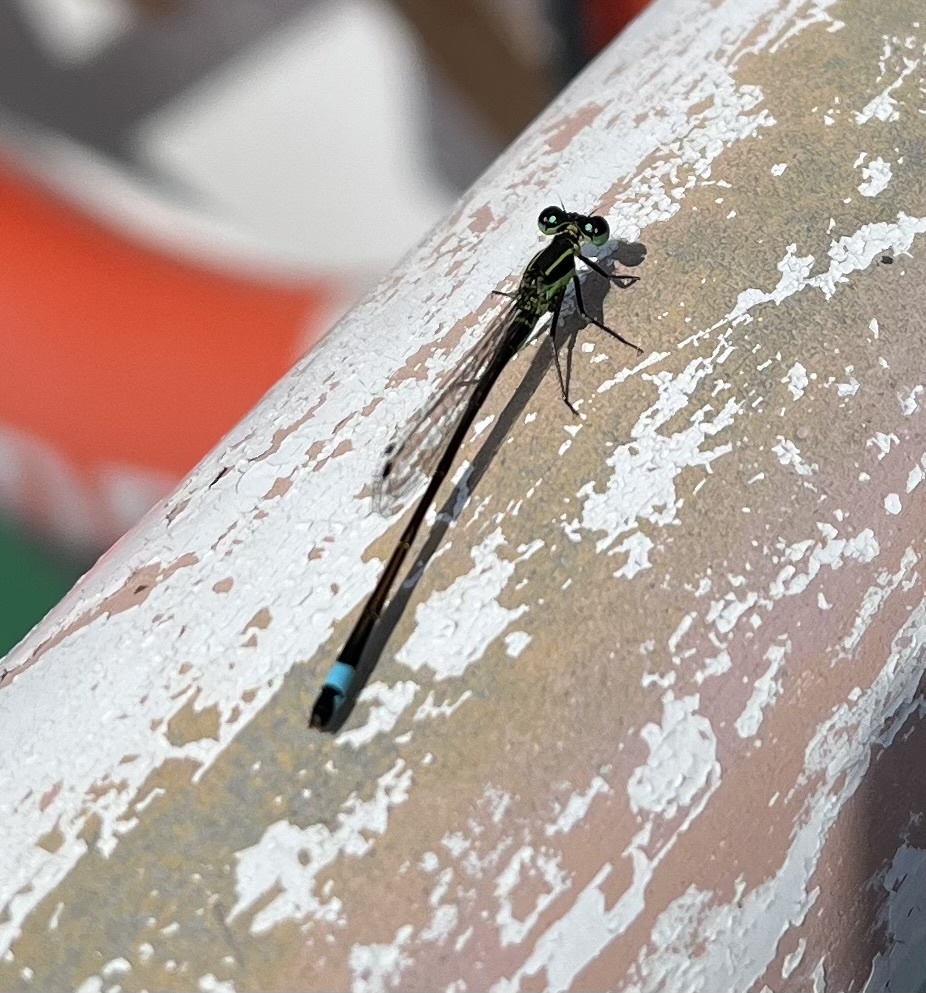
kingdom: Animalia
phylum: Arthropoda
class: Insecta
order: Odonata
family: Coenagrionidae
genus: Ischnura
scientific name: Ischnura ramburii
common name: Rambur's forktail
